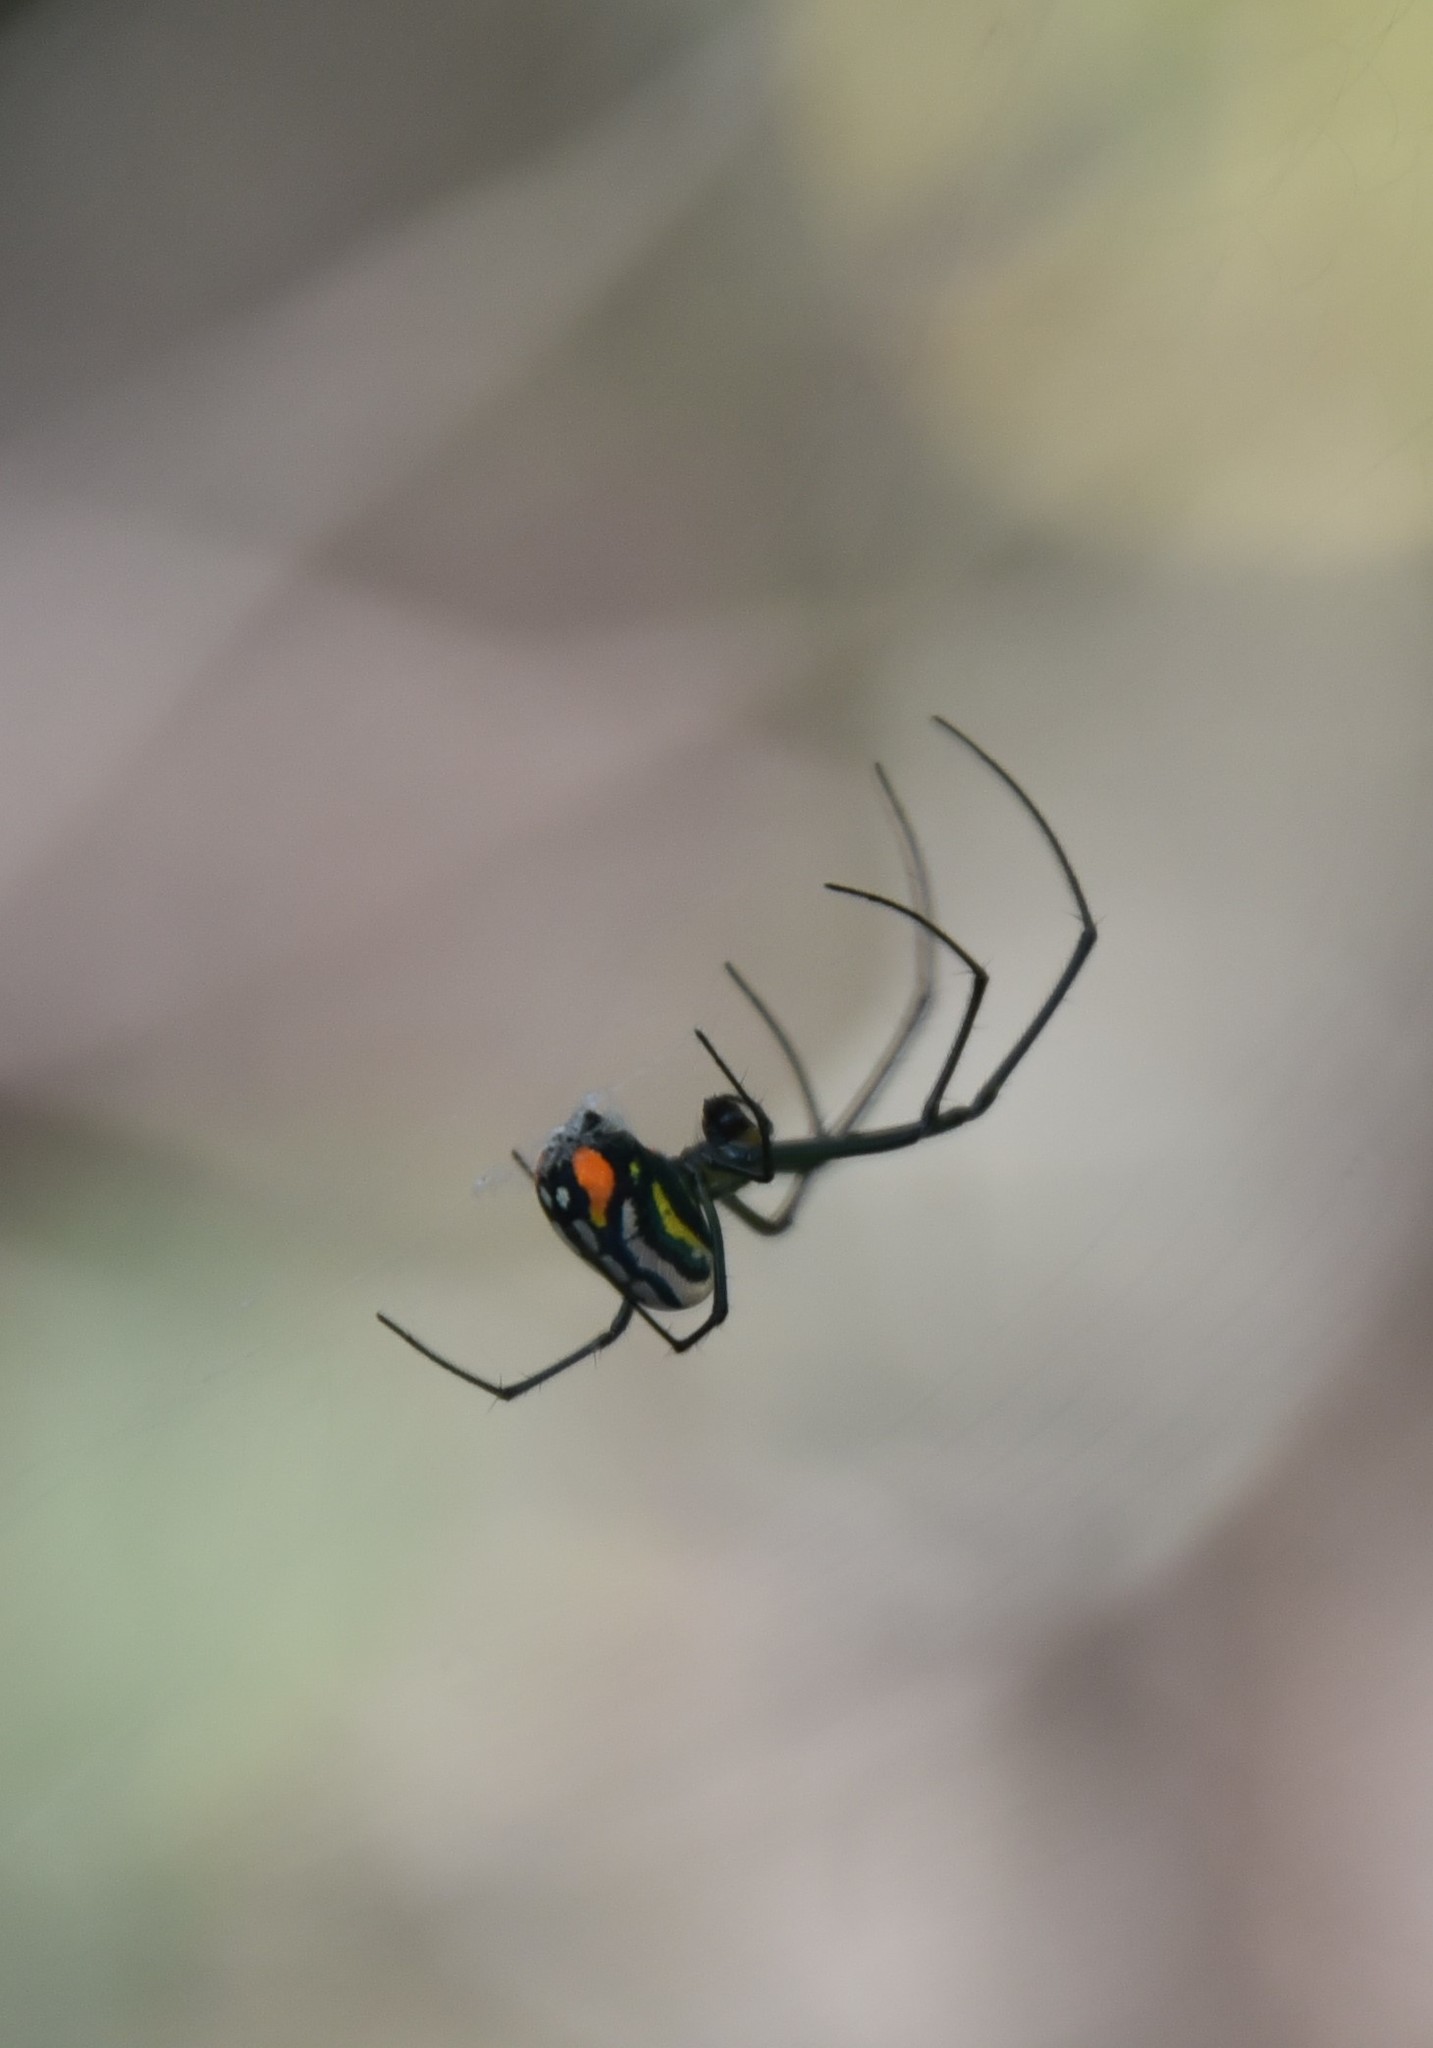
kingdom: Animalia
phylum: Arthropoda
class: Arachnida
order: Araneae
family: Tetragnathidae
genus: Leucauge
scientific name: Leucauge argyrobapta
